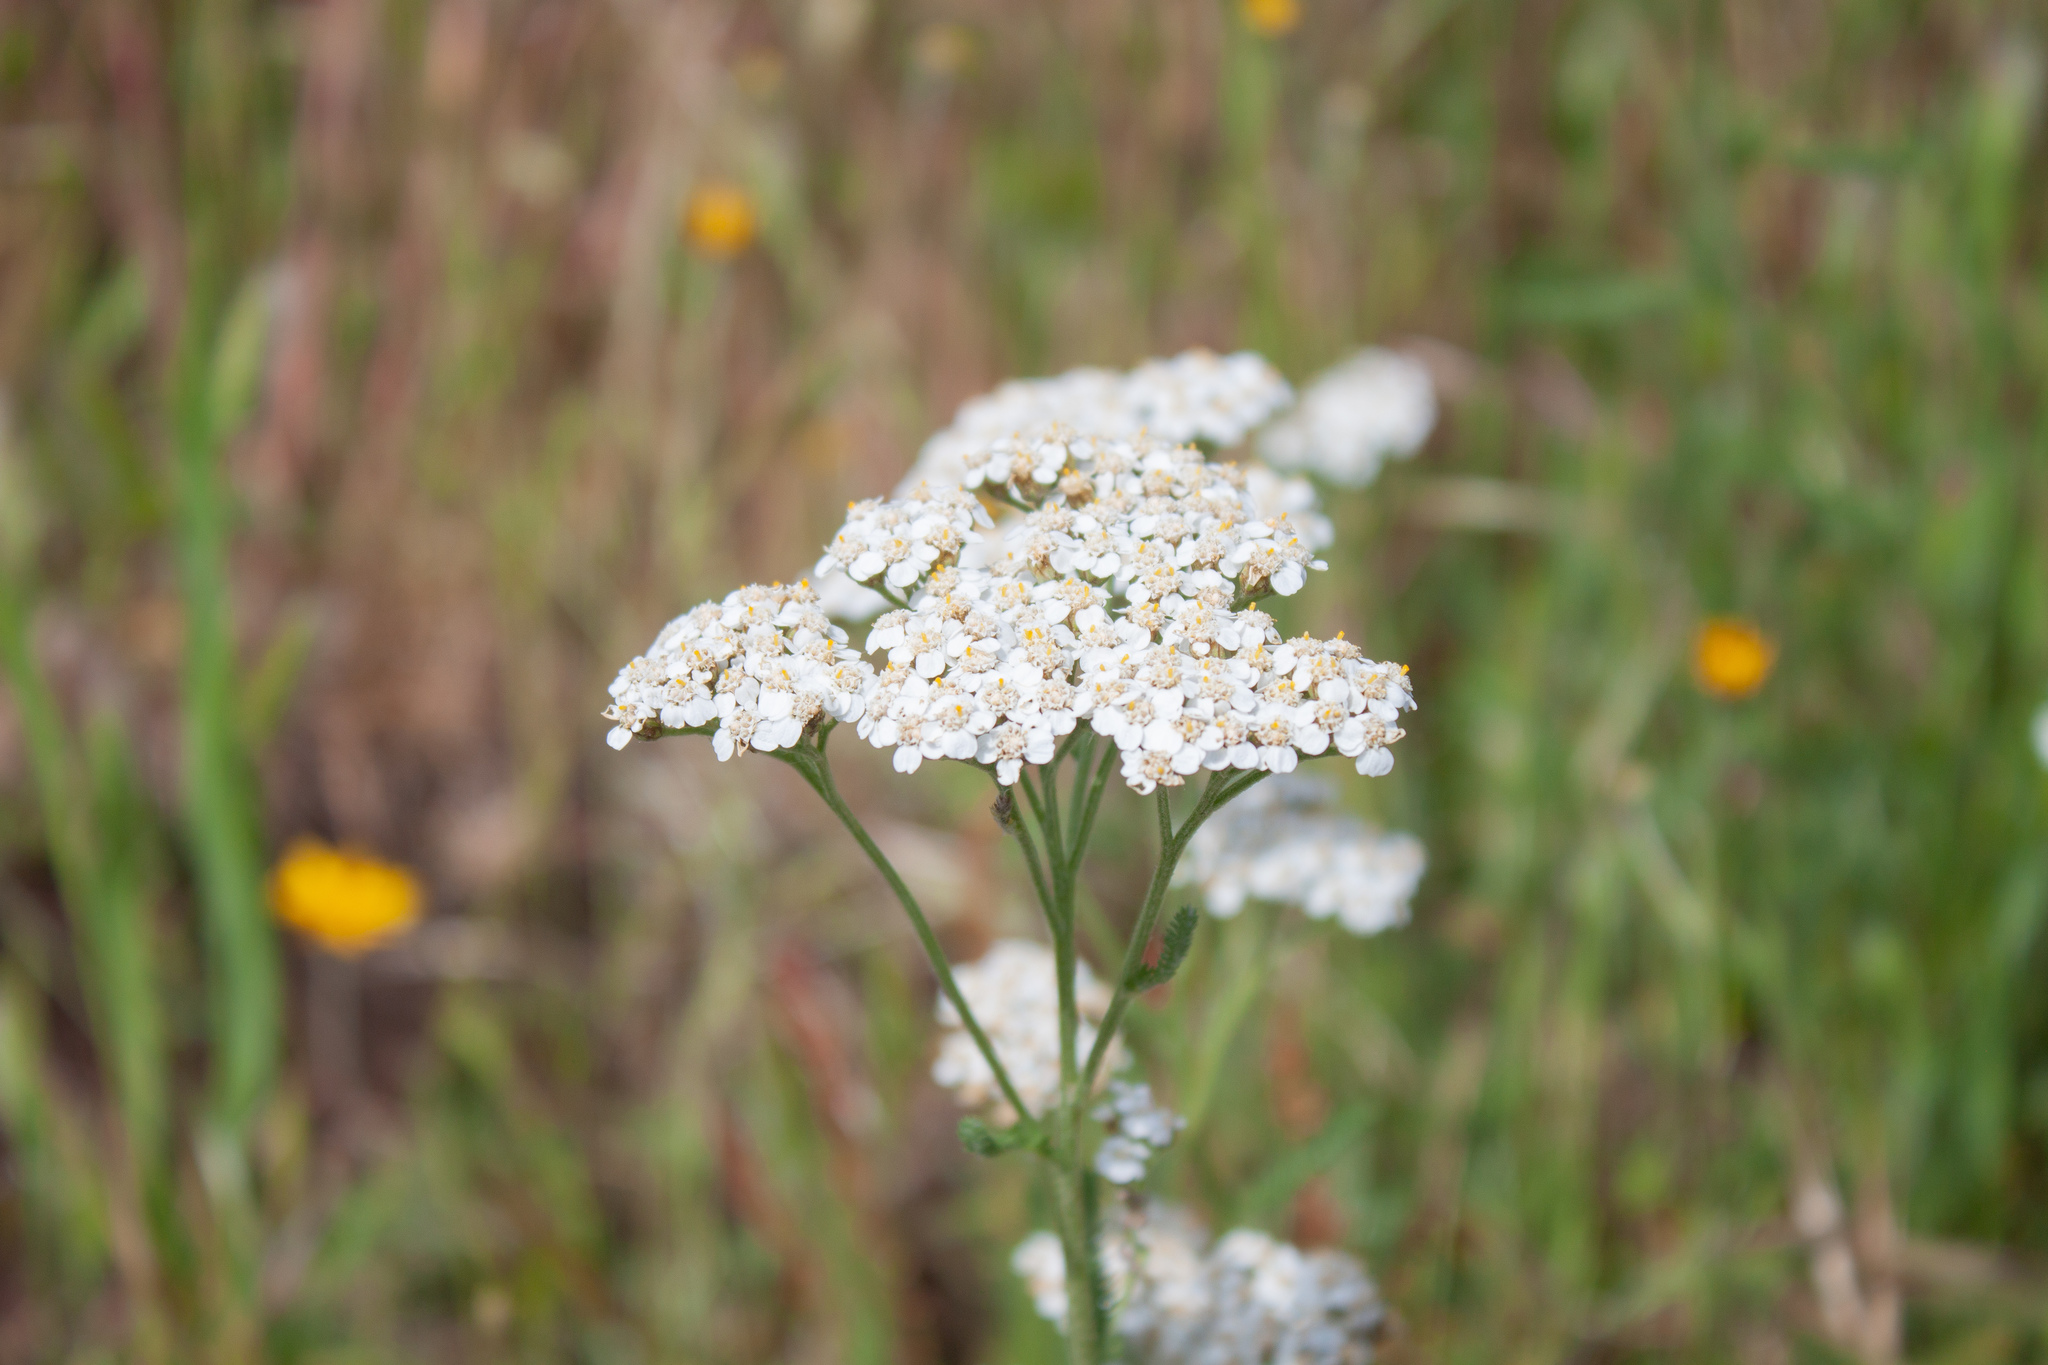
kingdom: Plantae
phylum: Tracheophyta
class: Magnoliopsida
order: Asterales
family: Asteraceae
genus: Achillea
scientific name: Achillea millefolium
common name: Yarrow
